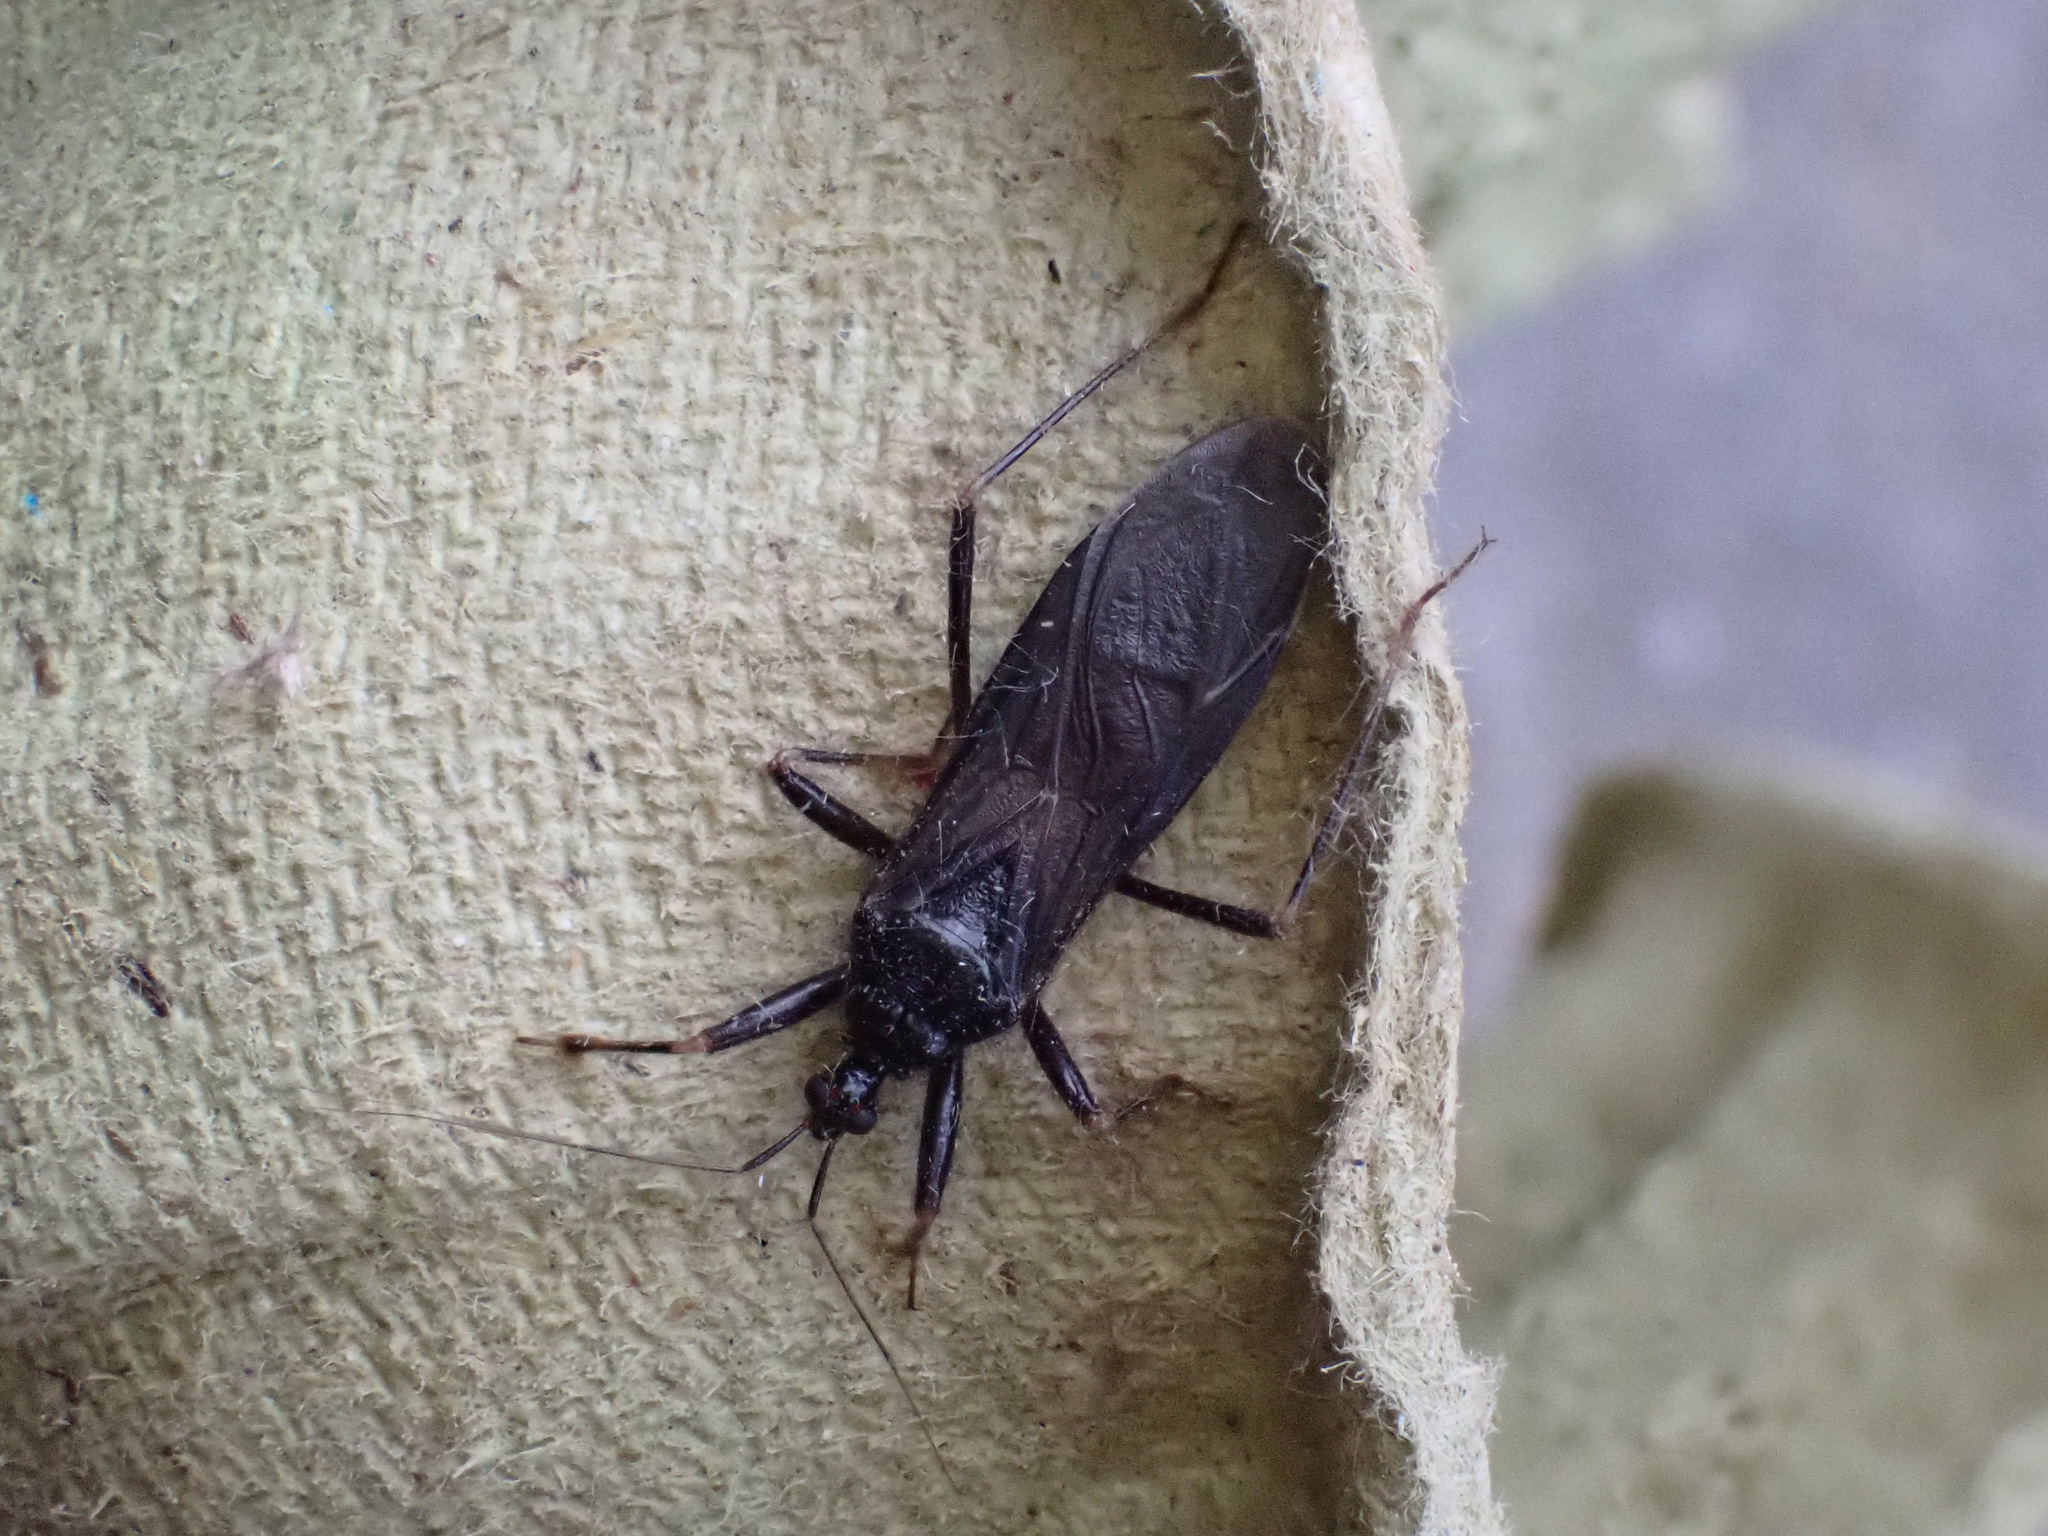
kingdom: Animalia
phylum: Arthropoda
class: Insecta
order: Hemiptera
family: Reduviidae
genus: Reduvius
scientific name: Reduvius personatus
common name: Masked hunter
